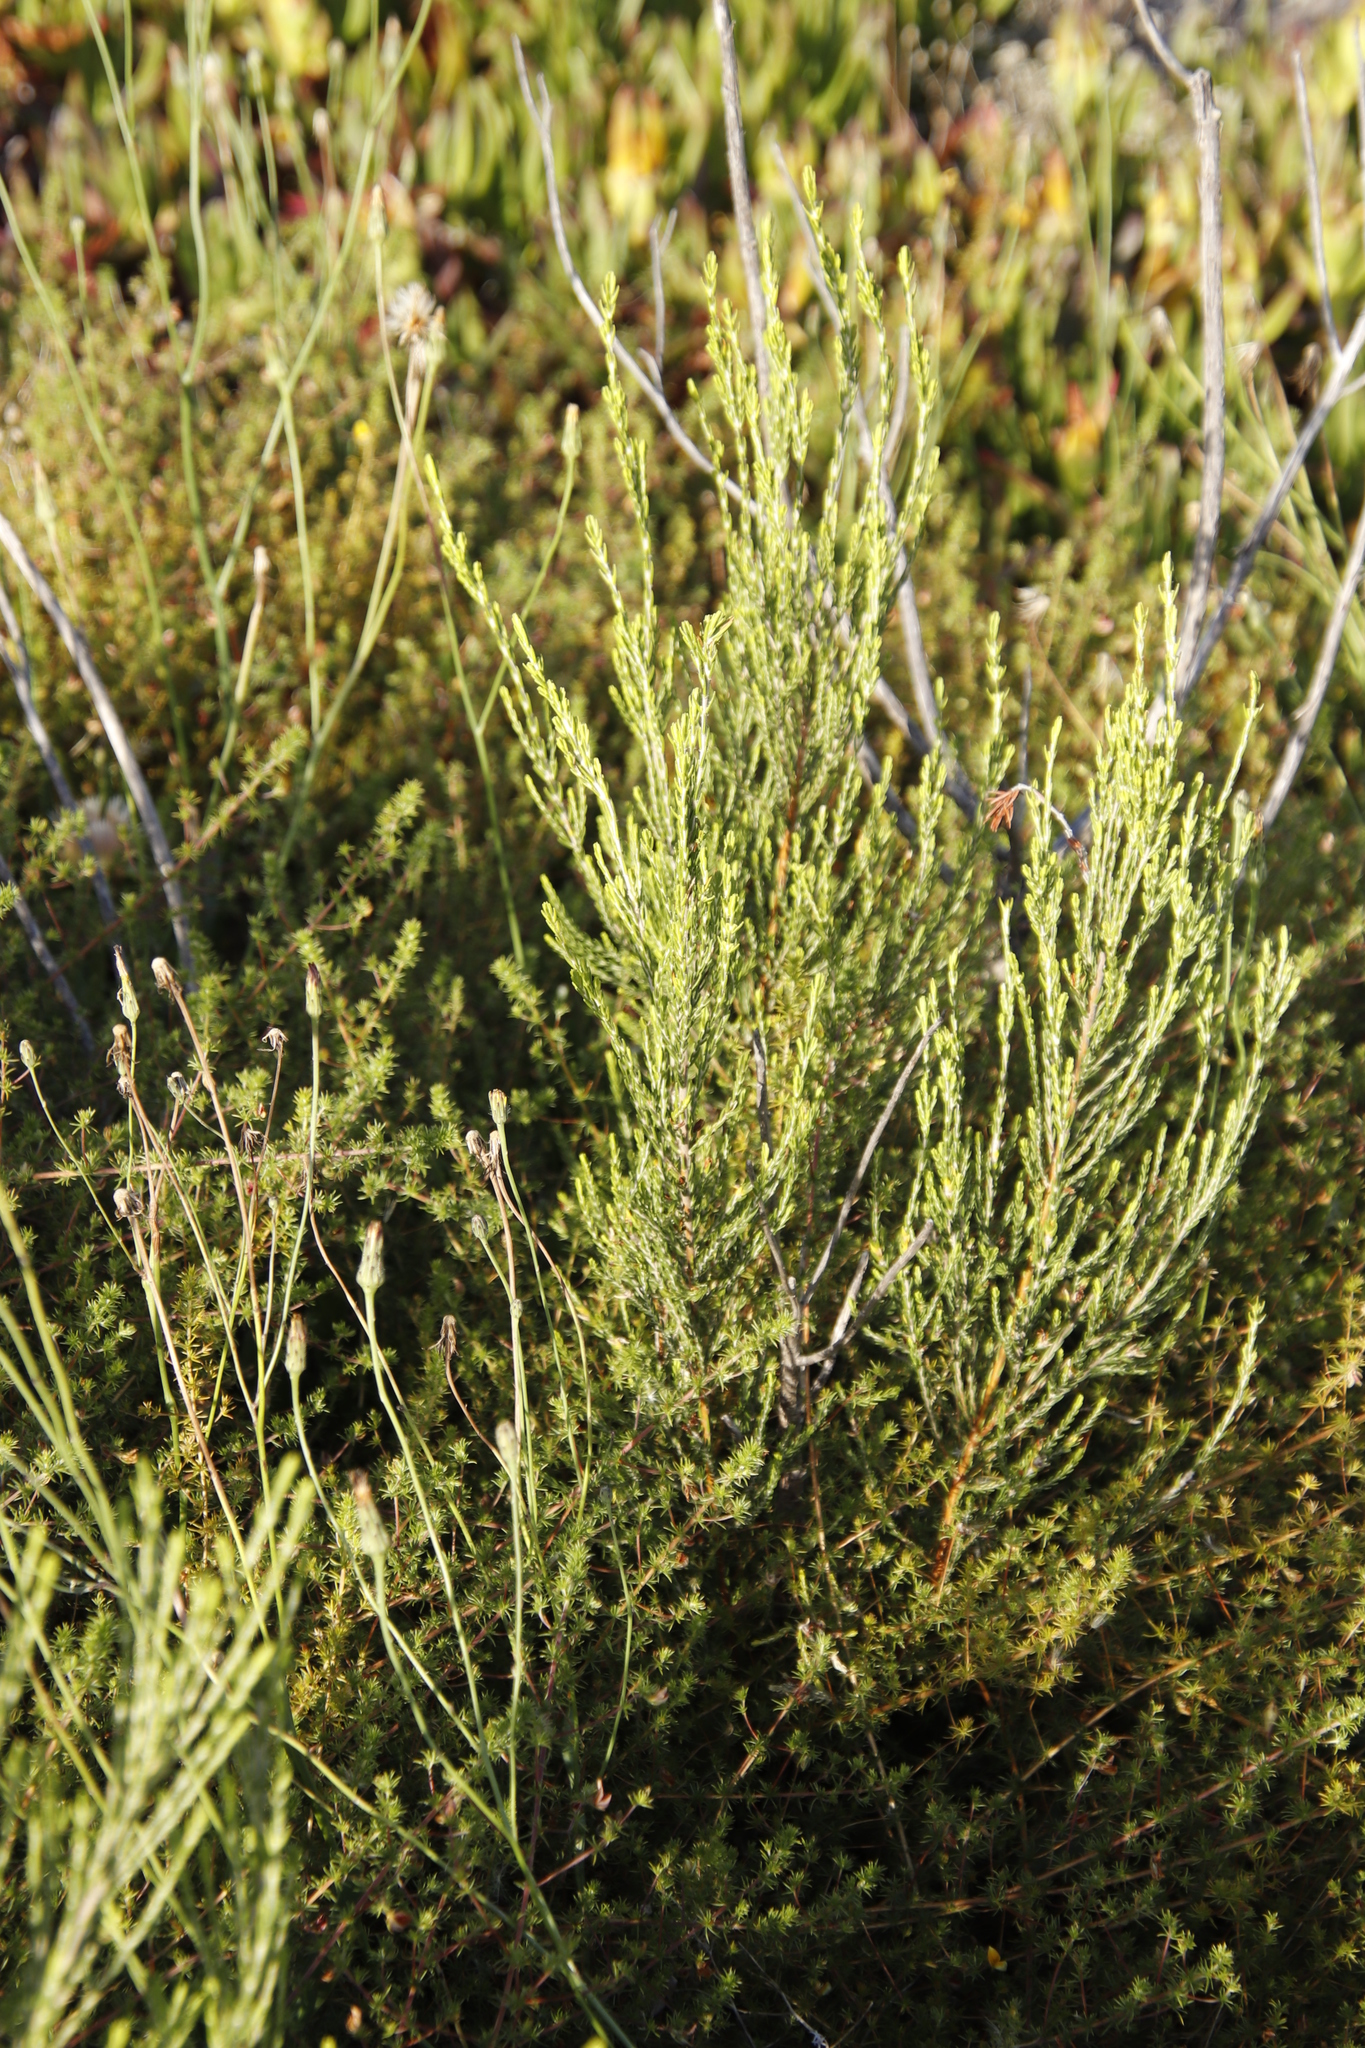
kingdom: Plantae
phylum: Tracheophyta
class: Magnoliopsida
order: Malvales
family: Thymelaeaceae
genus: Passerina
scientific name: Passerina corymbosa
